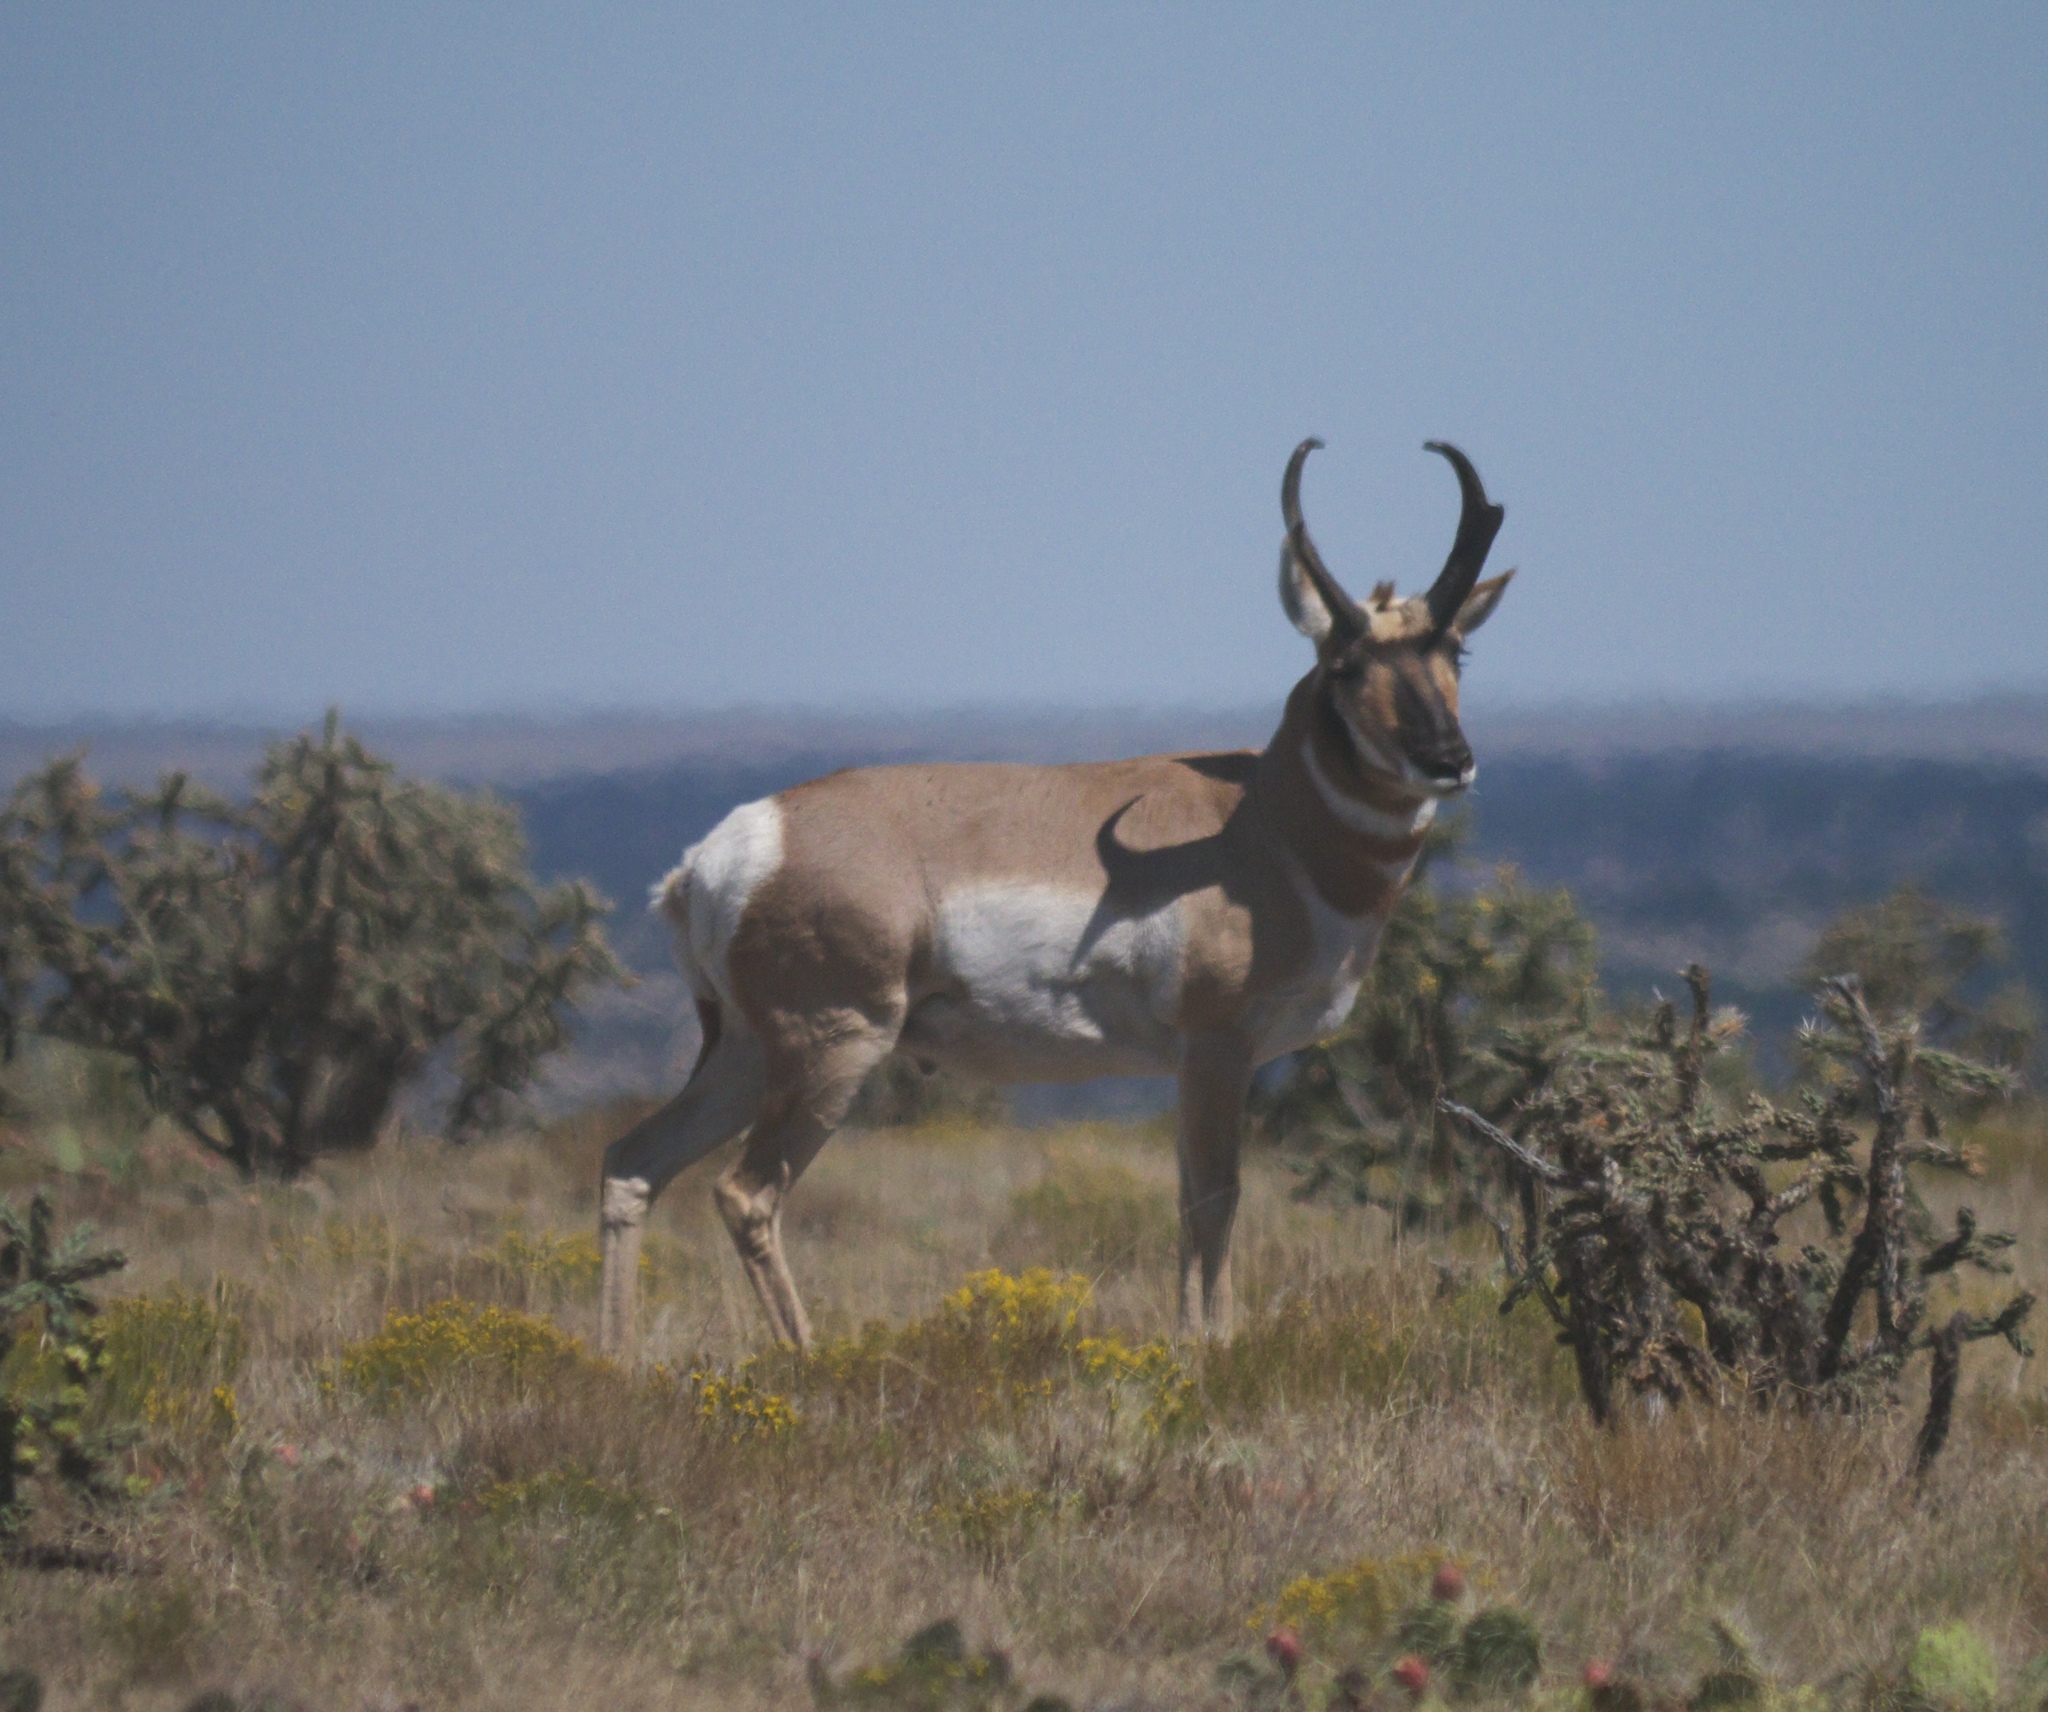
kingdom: Animalia
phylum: Chordata
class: Mammalia
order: Artiodactyla
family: Antilocapridae
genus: Antilocapra
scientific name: Antilocapra americana
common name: Pronghorn
